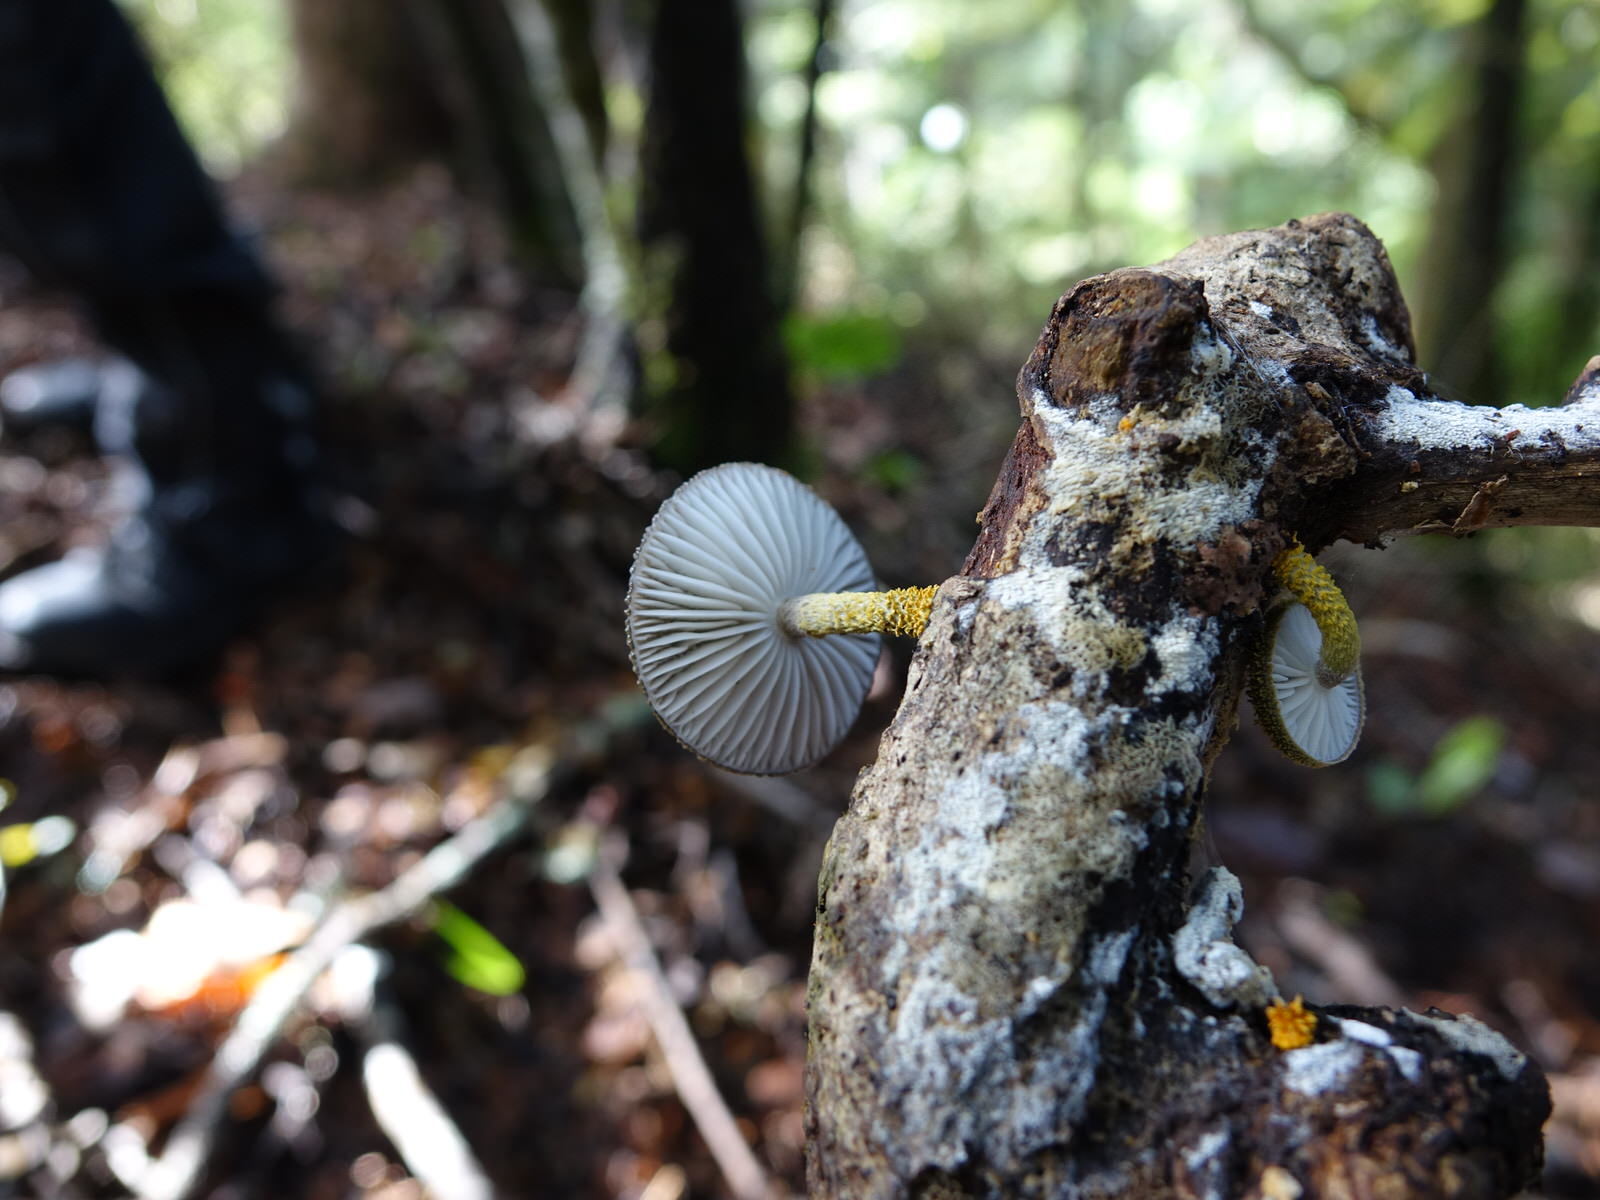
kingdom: Fungi
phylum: Basidiomycota
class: Agaricomycetes
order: Agaricales
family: Physalacriaceae
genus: Cyptotrama
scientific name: Cyptotrama
